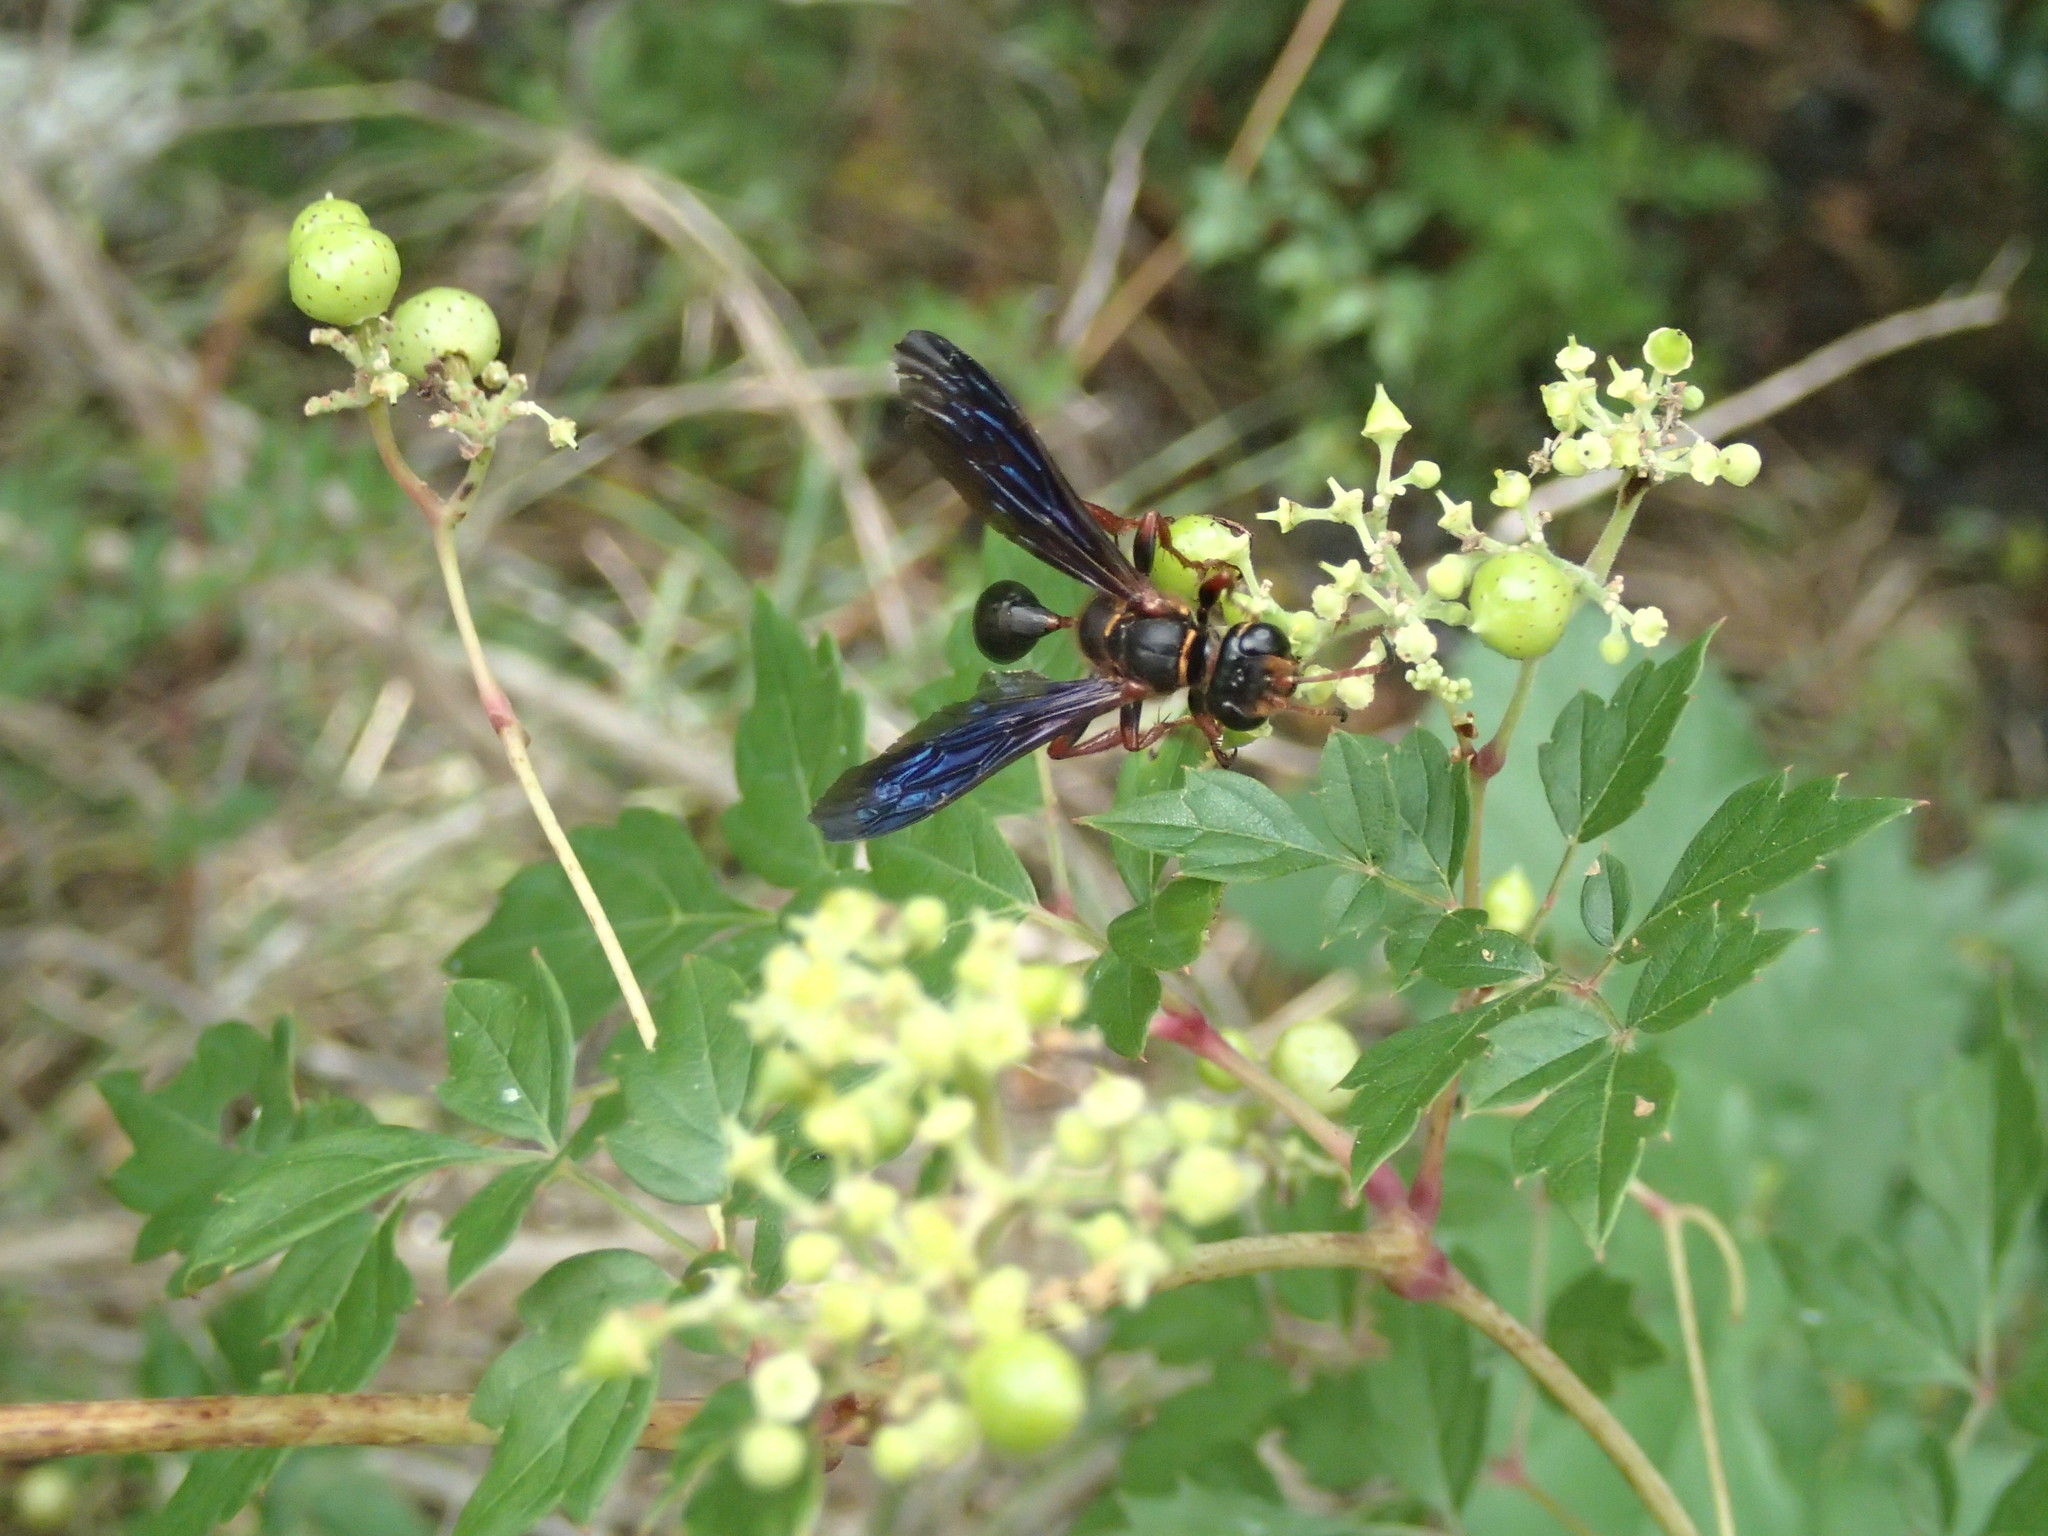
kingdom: Plantae
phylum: Tracheophyta
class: Magnoliopsida
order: Vitales
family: Vitaceae
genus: Nekemias
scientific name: Nekemias arborea
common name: Peppervine
